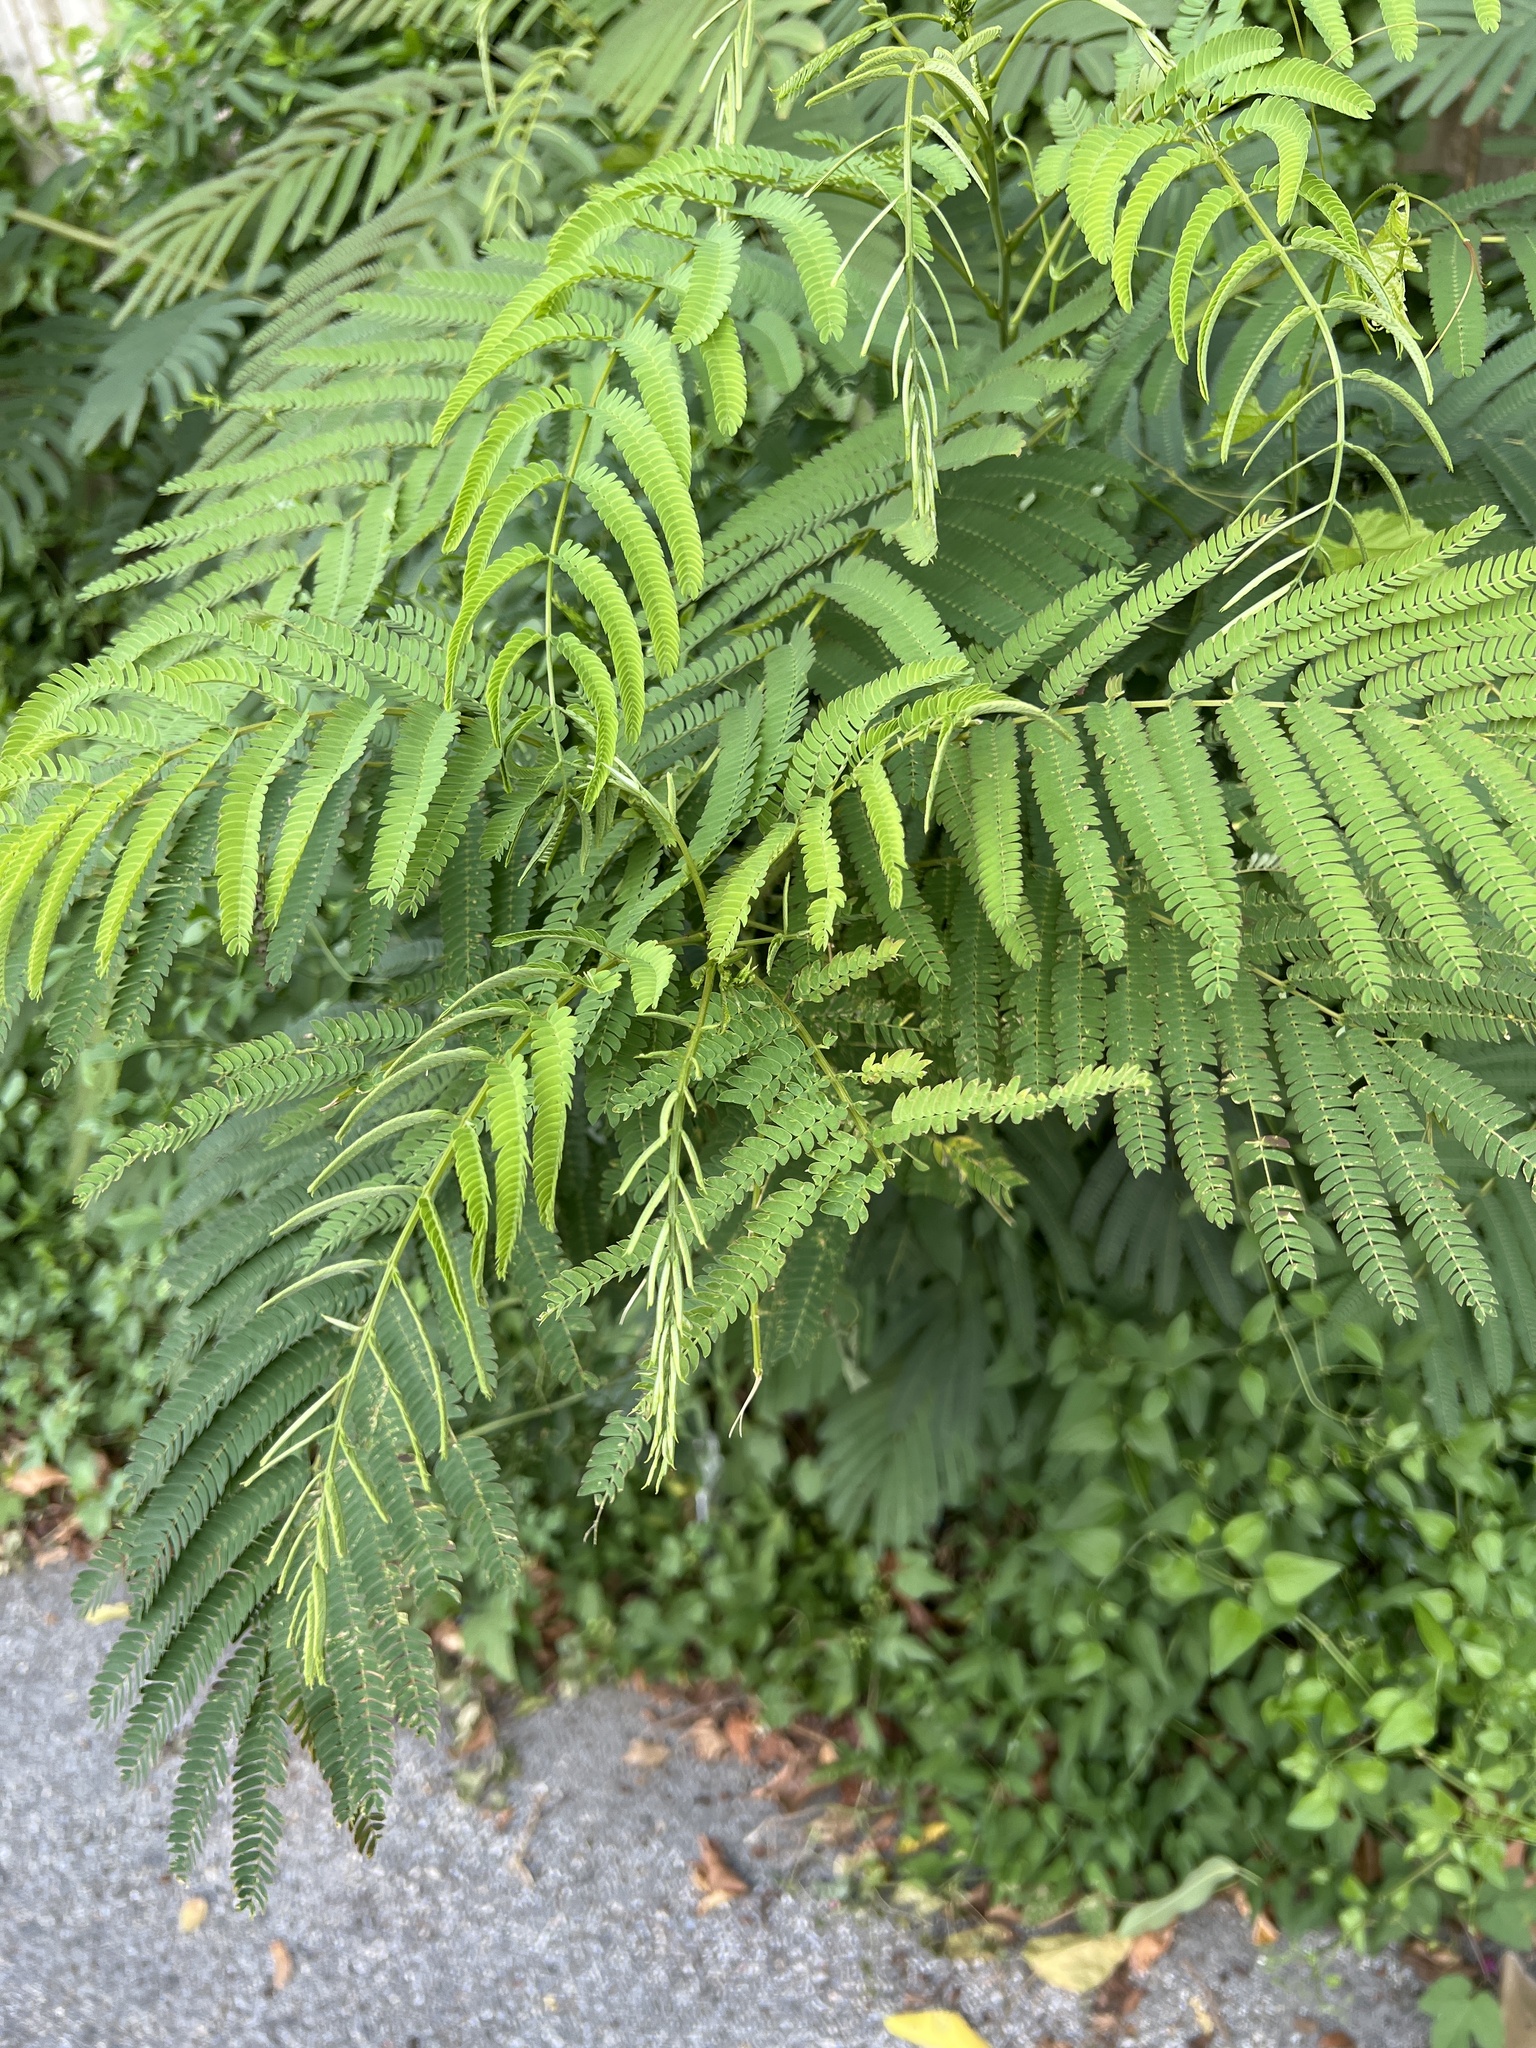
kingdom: Plantae
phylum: Tracheophyta
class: Magnoliopsida
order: Fabales
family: Fabaceae
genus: Albizia
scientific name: Albizia julibrissin
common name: Silktree
